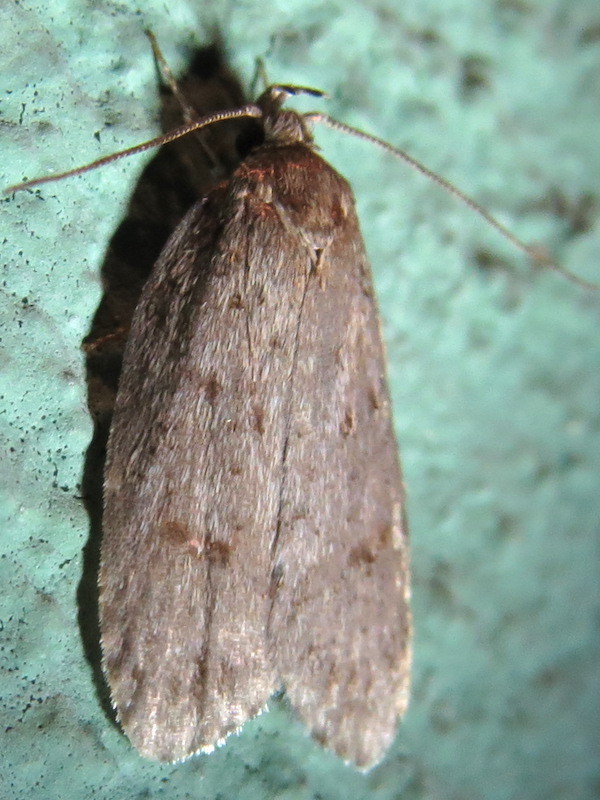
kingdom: Animalia
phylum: Arthropoda
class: Insecta
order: Lepidoptera
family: Depressariidae
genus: Bibarrambla
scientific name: Bibarrambla allenella
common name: Bog bibarrambla moth
